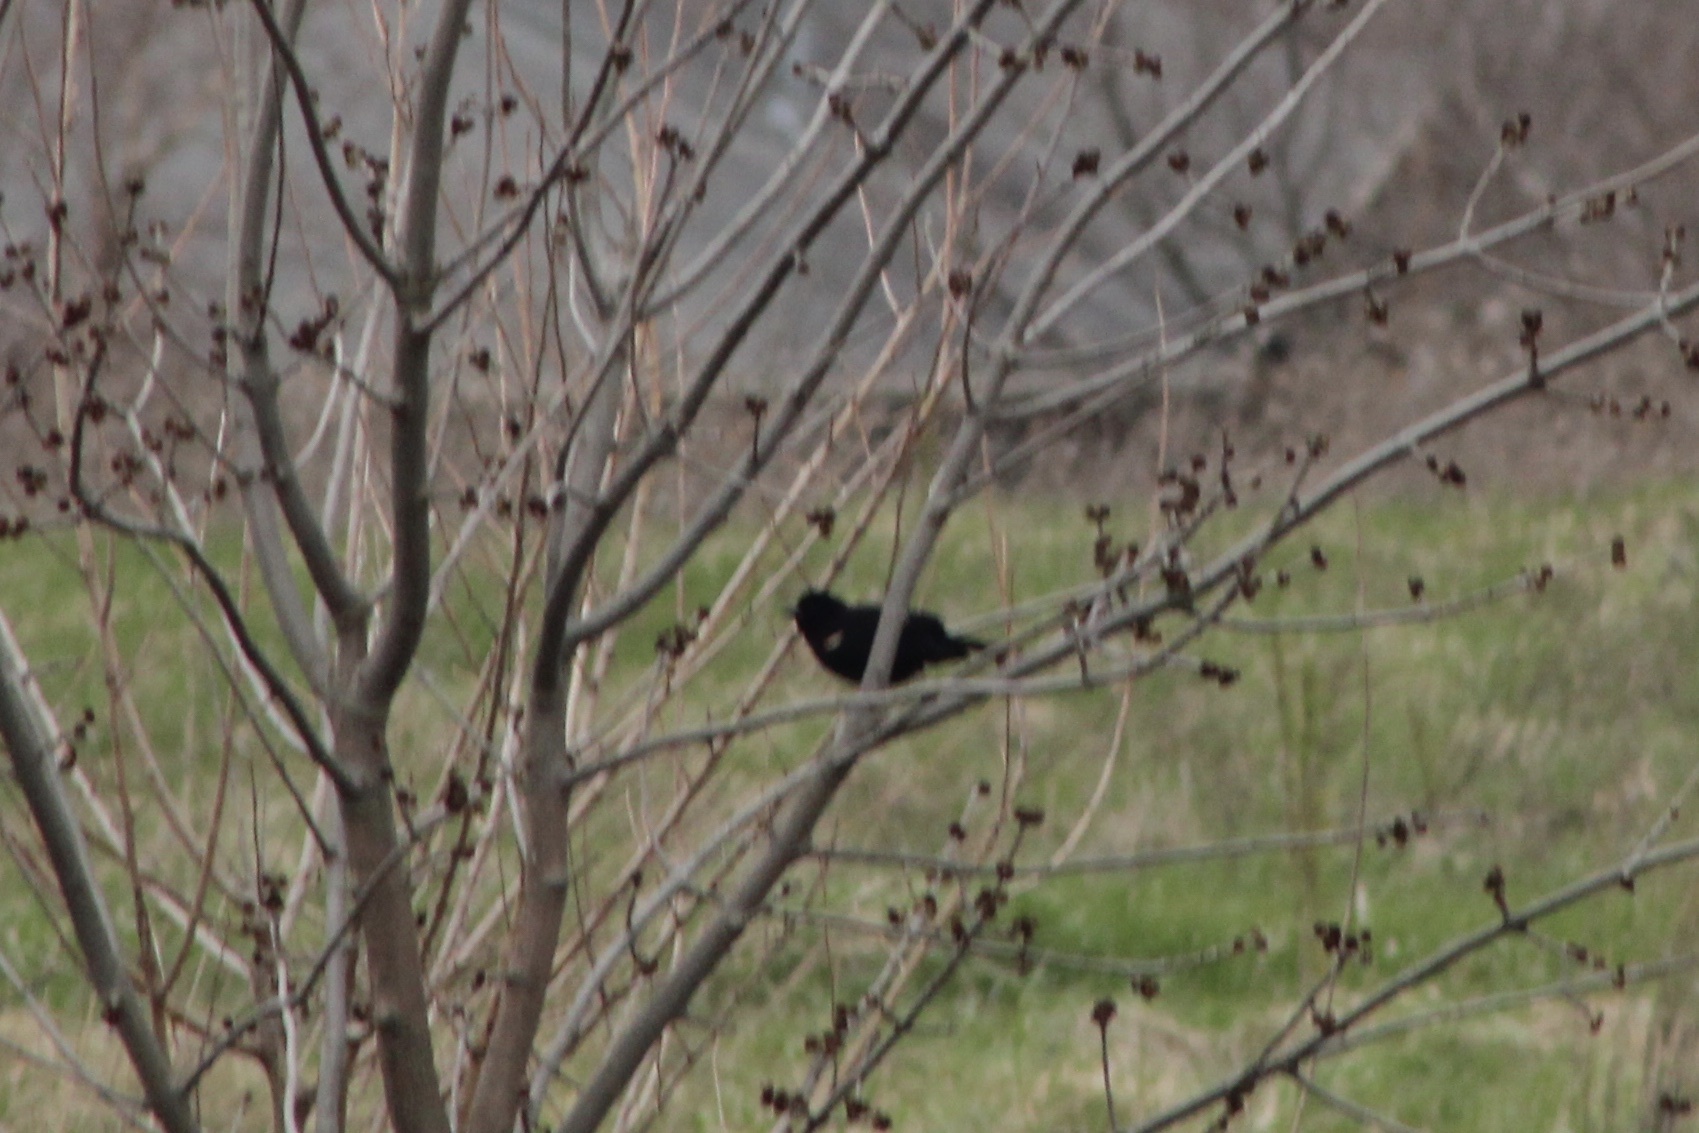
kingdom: Animalia
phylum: Chordata
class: Aves
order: Passeriformes
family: Icteridae
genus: Agelaius
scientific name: Agelaius phoeniceus
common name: Red-winged blackbird
